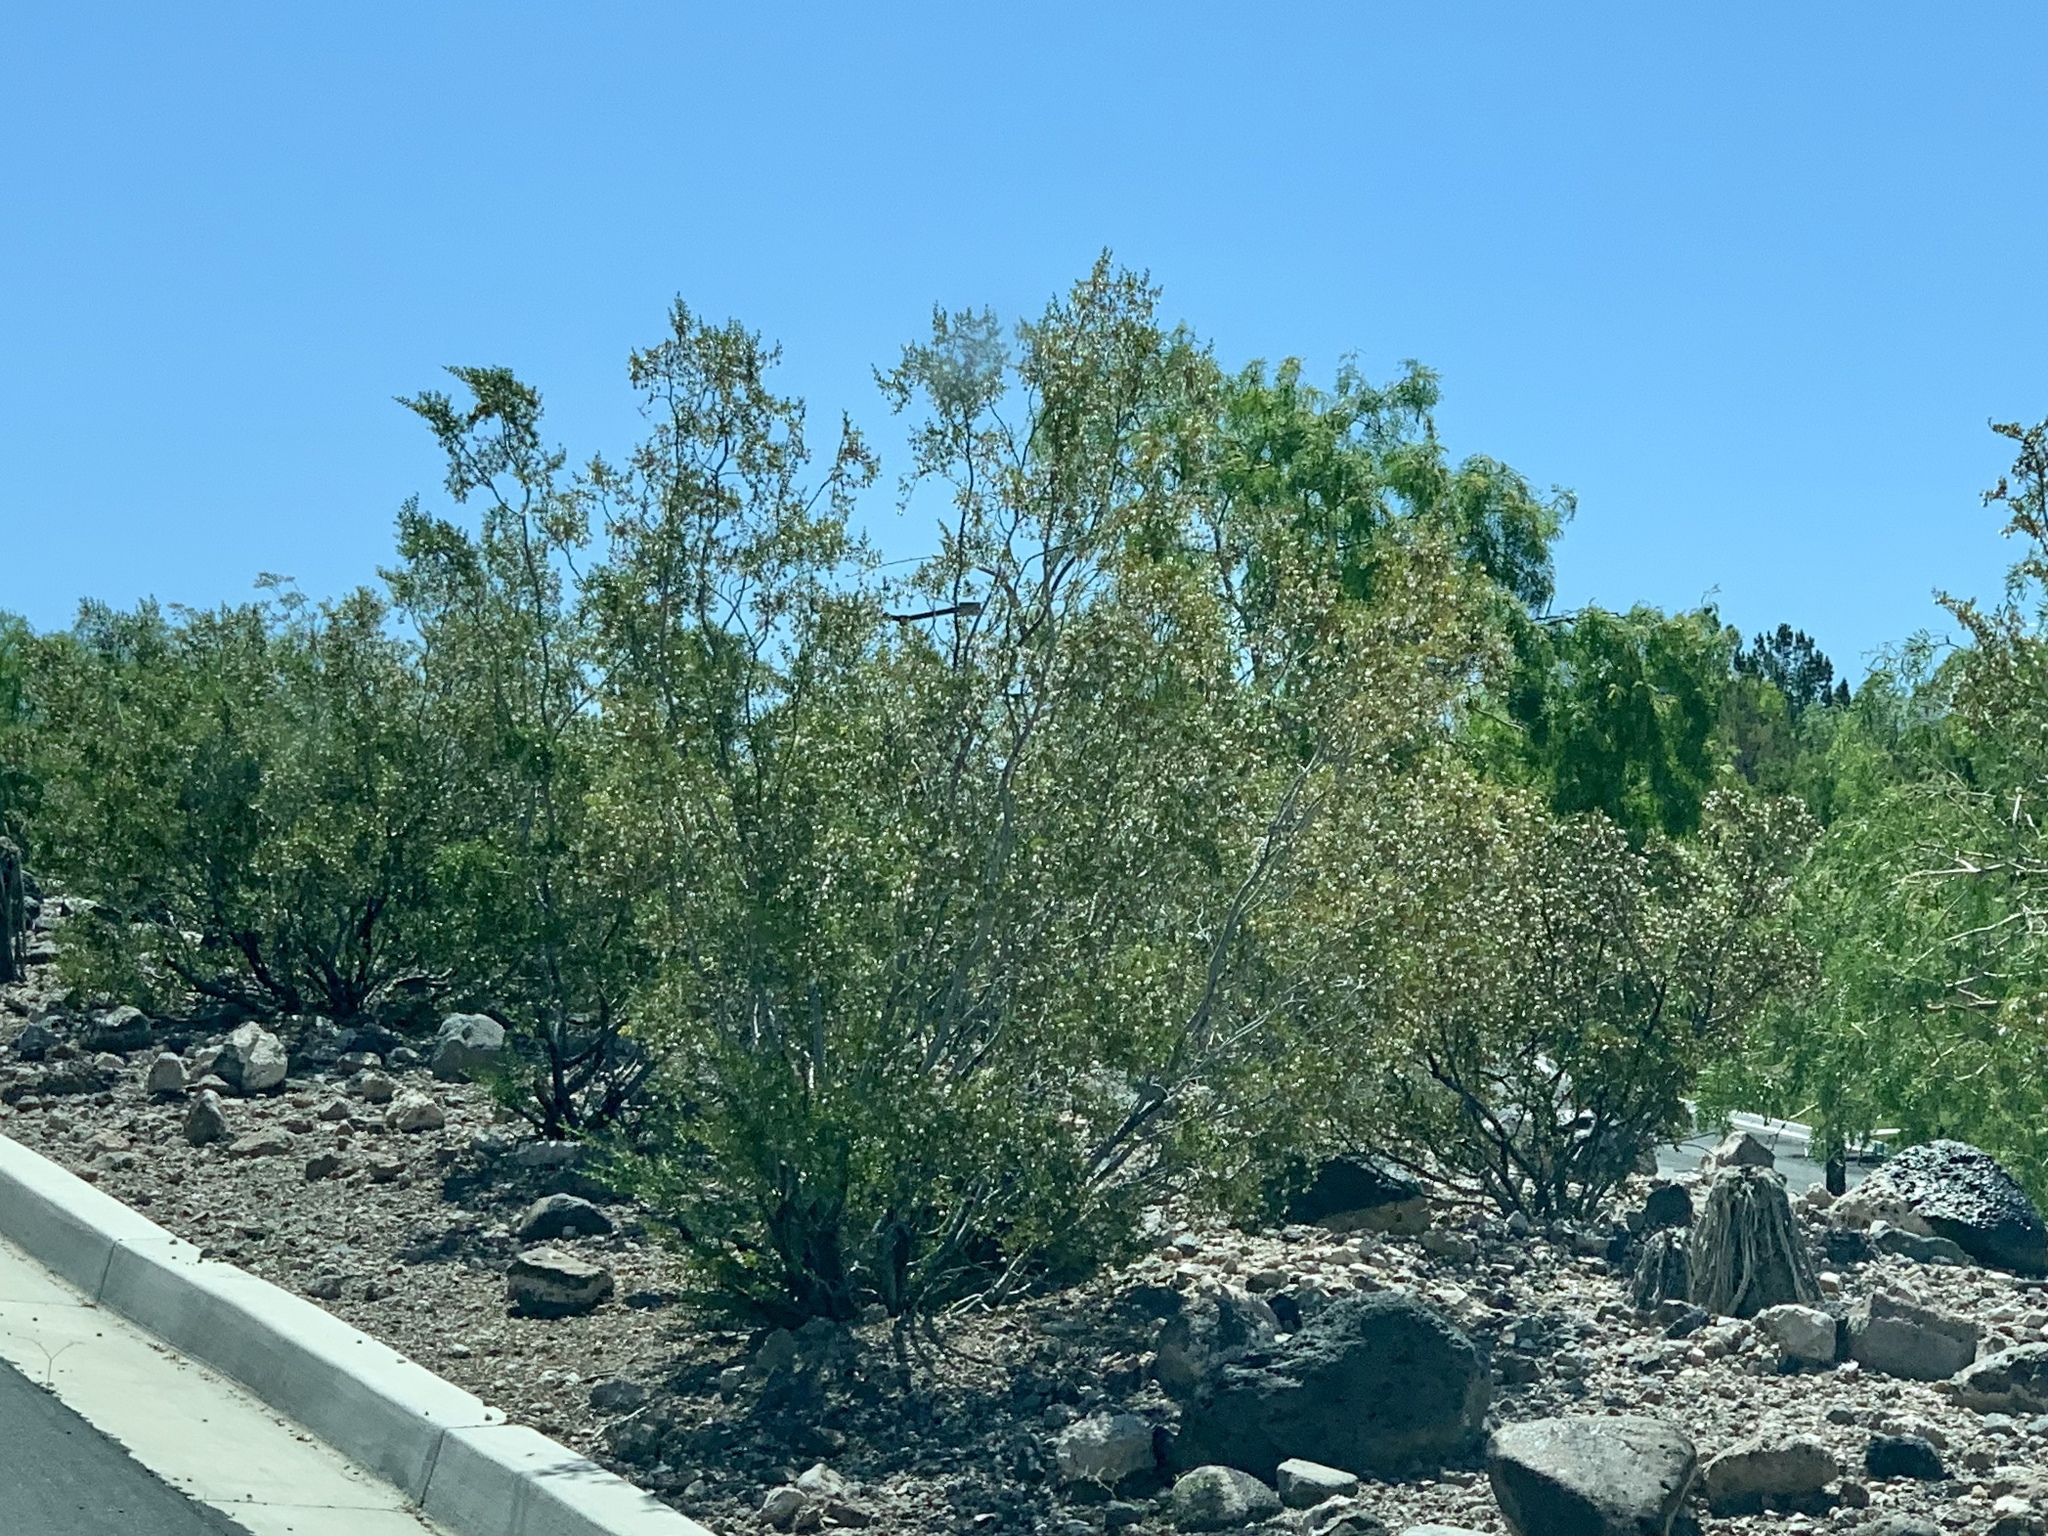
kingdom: Plantae
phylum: Tracheophyta
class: Magnoliopsida
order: Zygophyllales
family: Zygophyllaceae
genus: Larrea
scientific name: Larrea tridentata
